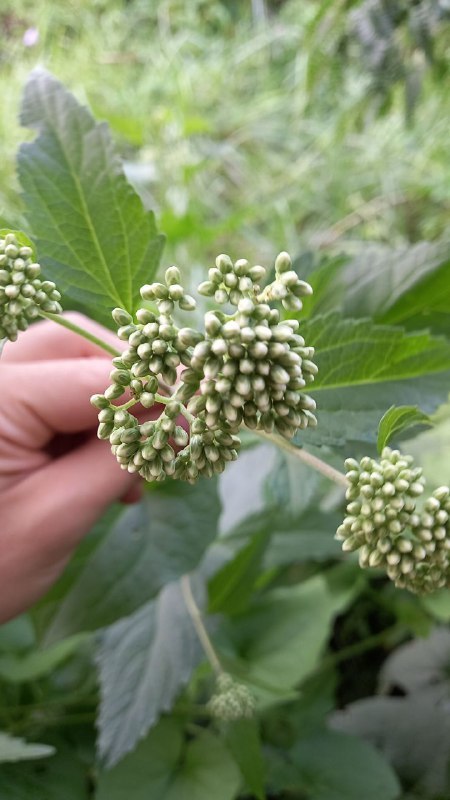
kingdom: Plantae
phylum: Tracheophyta
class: Magnoliopsida
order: Asterales
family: Asteraceae
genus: Austroeupatorium
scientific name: Austroeupatorium inulifolium
